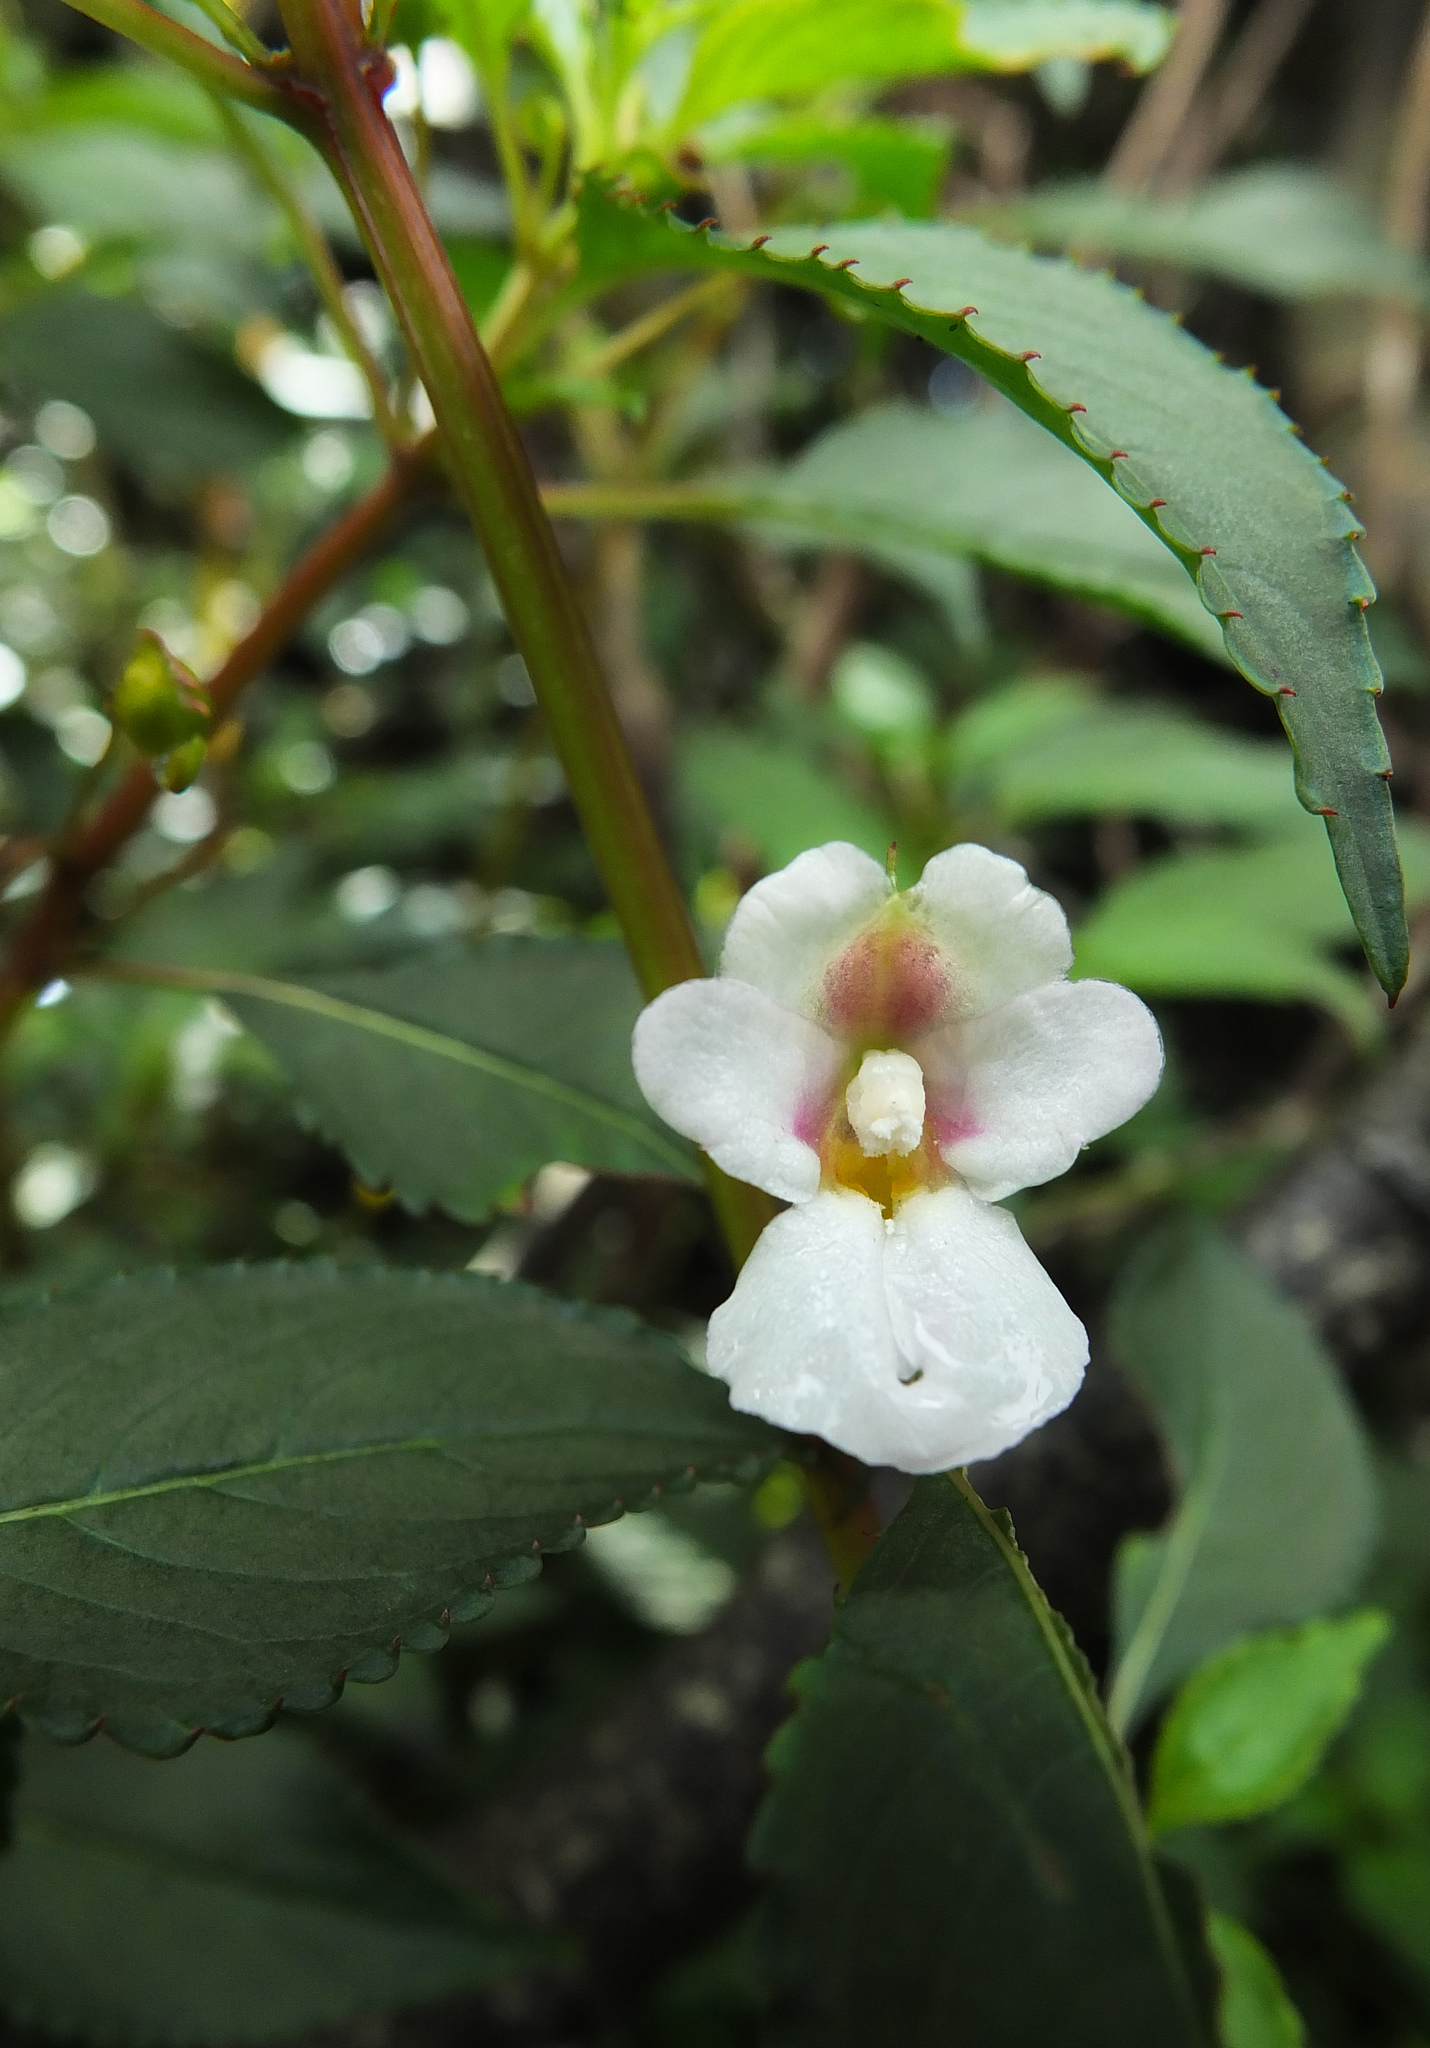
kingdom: Plantae
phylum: Tracheophyta
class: Magnoliopsida
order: Ericales
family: Balsaminaceae
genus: Impatiens
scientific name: Impatiens leschenaultii
